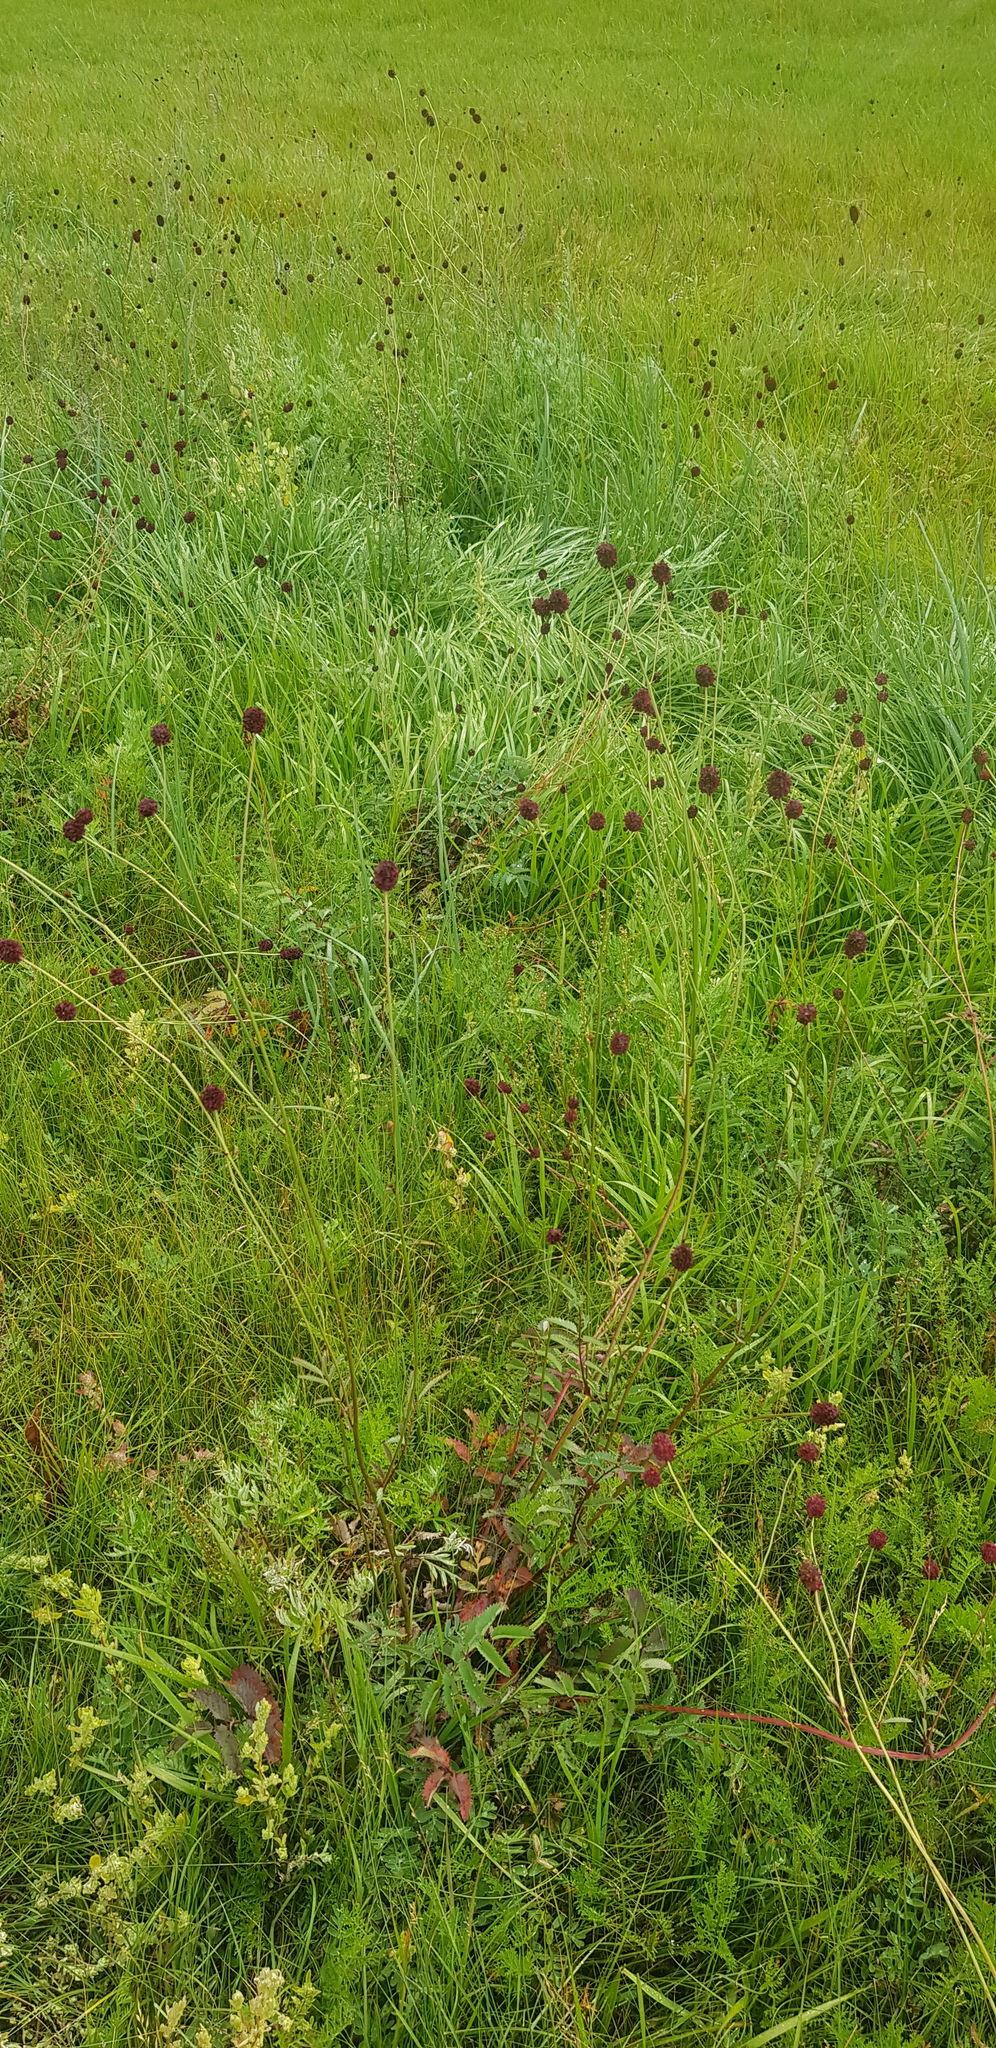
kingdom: Plantae
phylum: Tracheophyta
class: Magnoliopsida
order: Rosales
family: Rosaceae
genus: Sanguisorba
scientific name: Sanguisorba officinalis
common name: Great burnet
